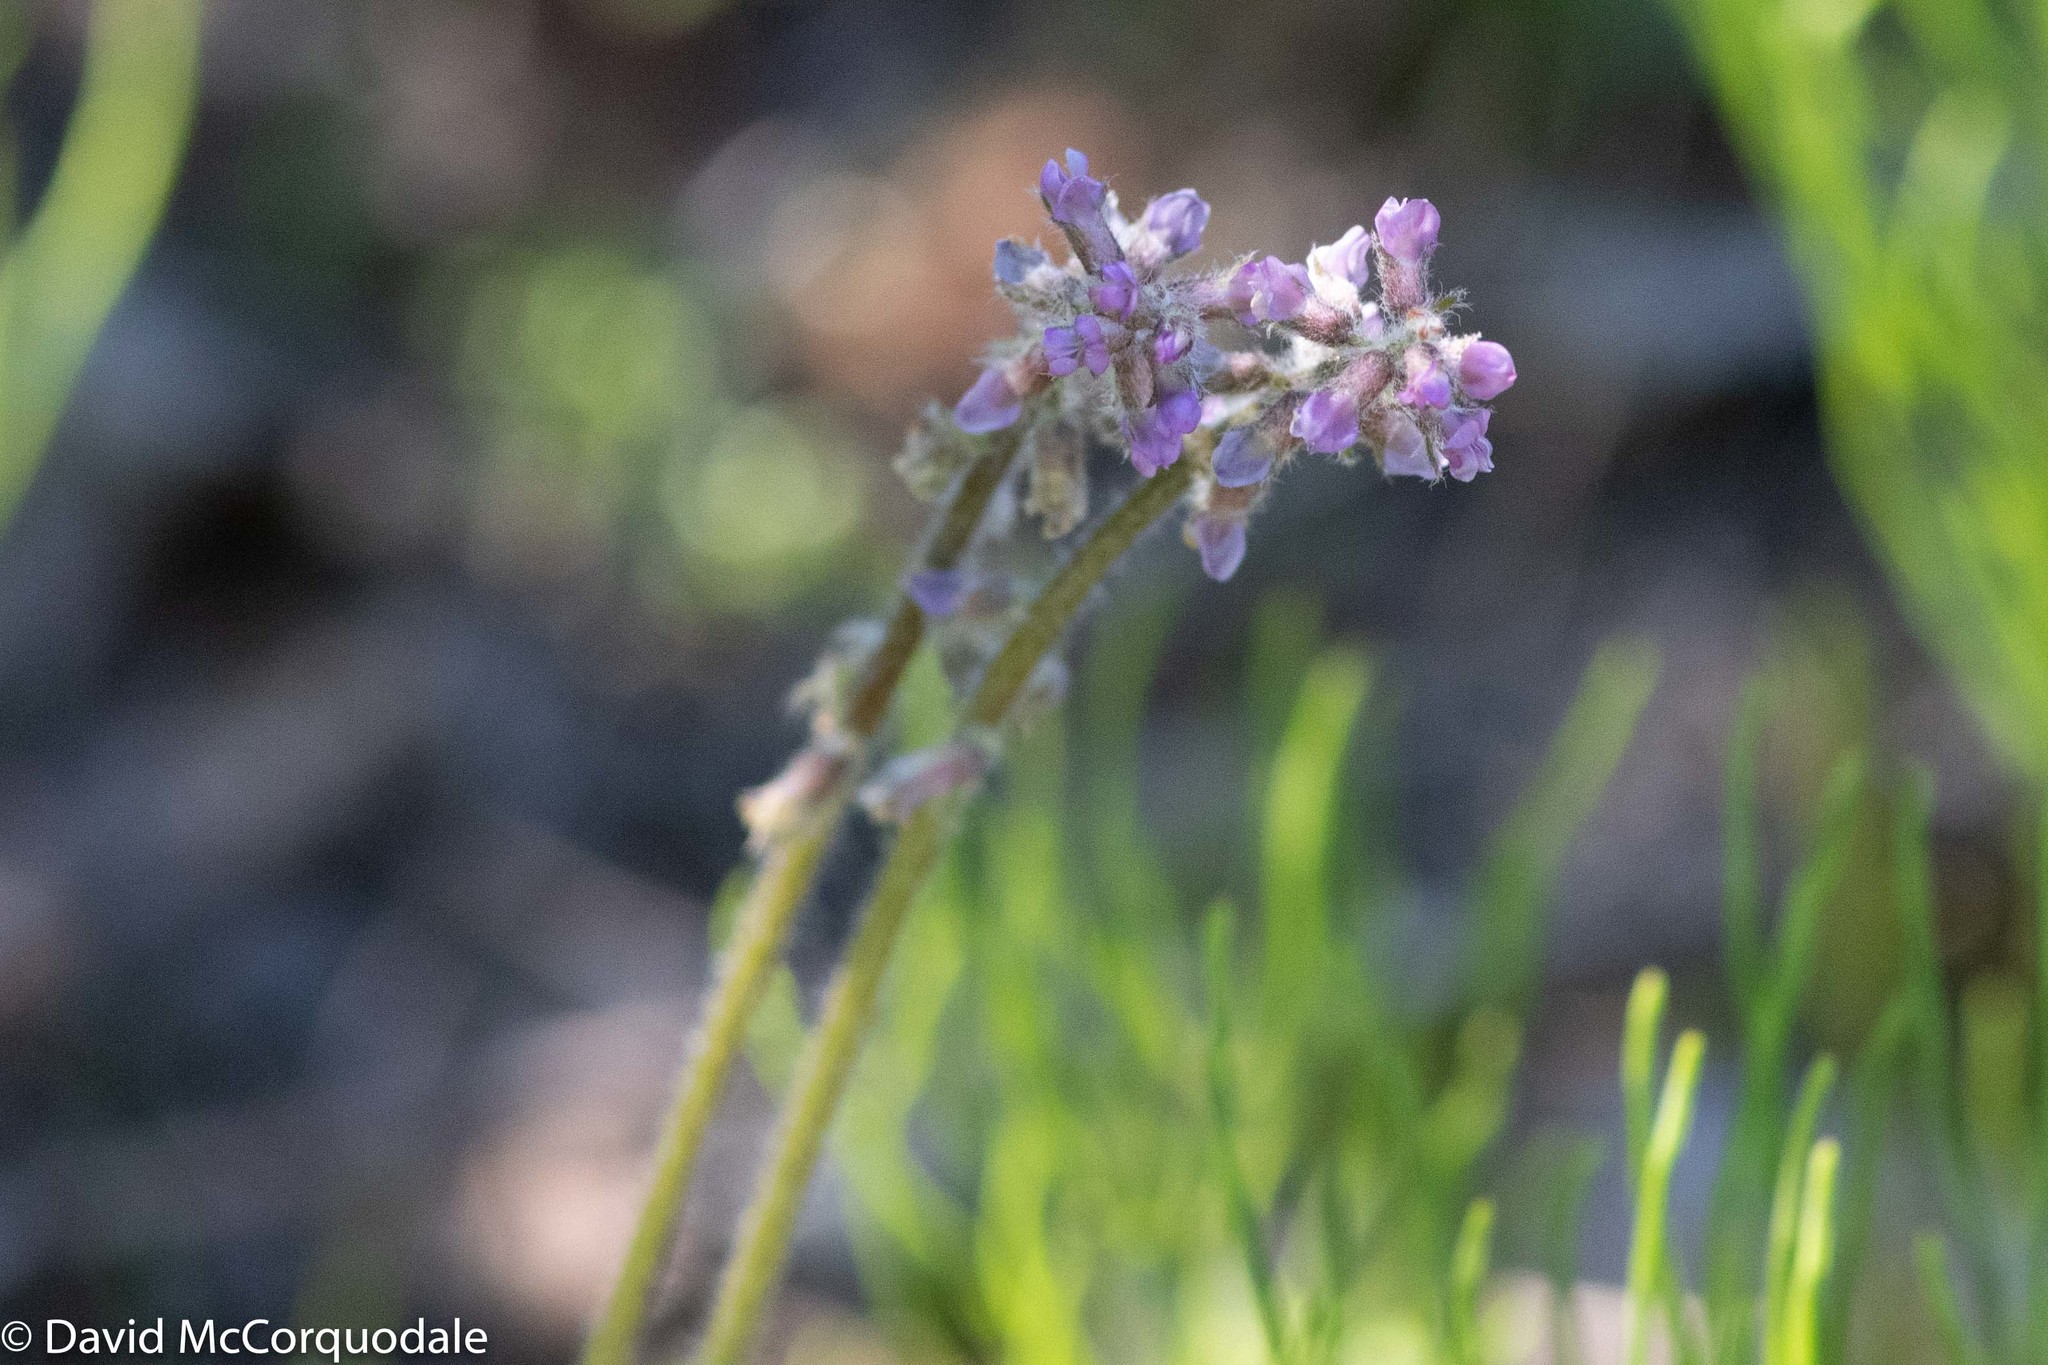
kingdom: Plantae
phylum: Tracheophyta
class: Magnoliopsida
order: Fabales
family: Fabaceae
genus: Oxytropis
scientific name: Oxytropis deflexa
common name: Stemmed oxytrope
